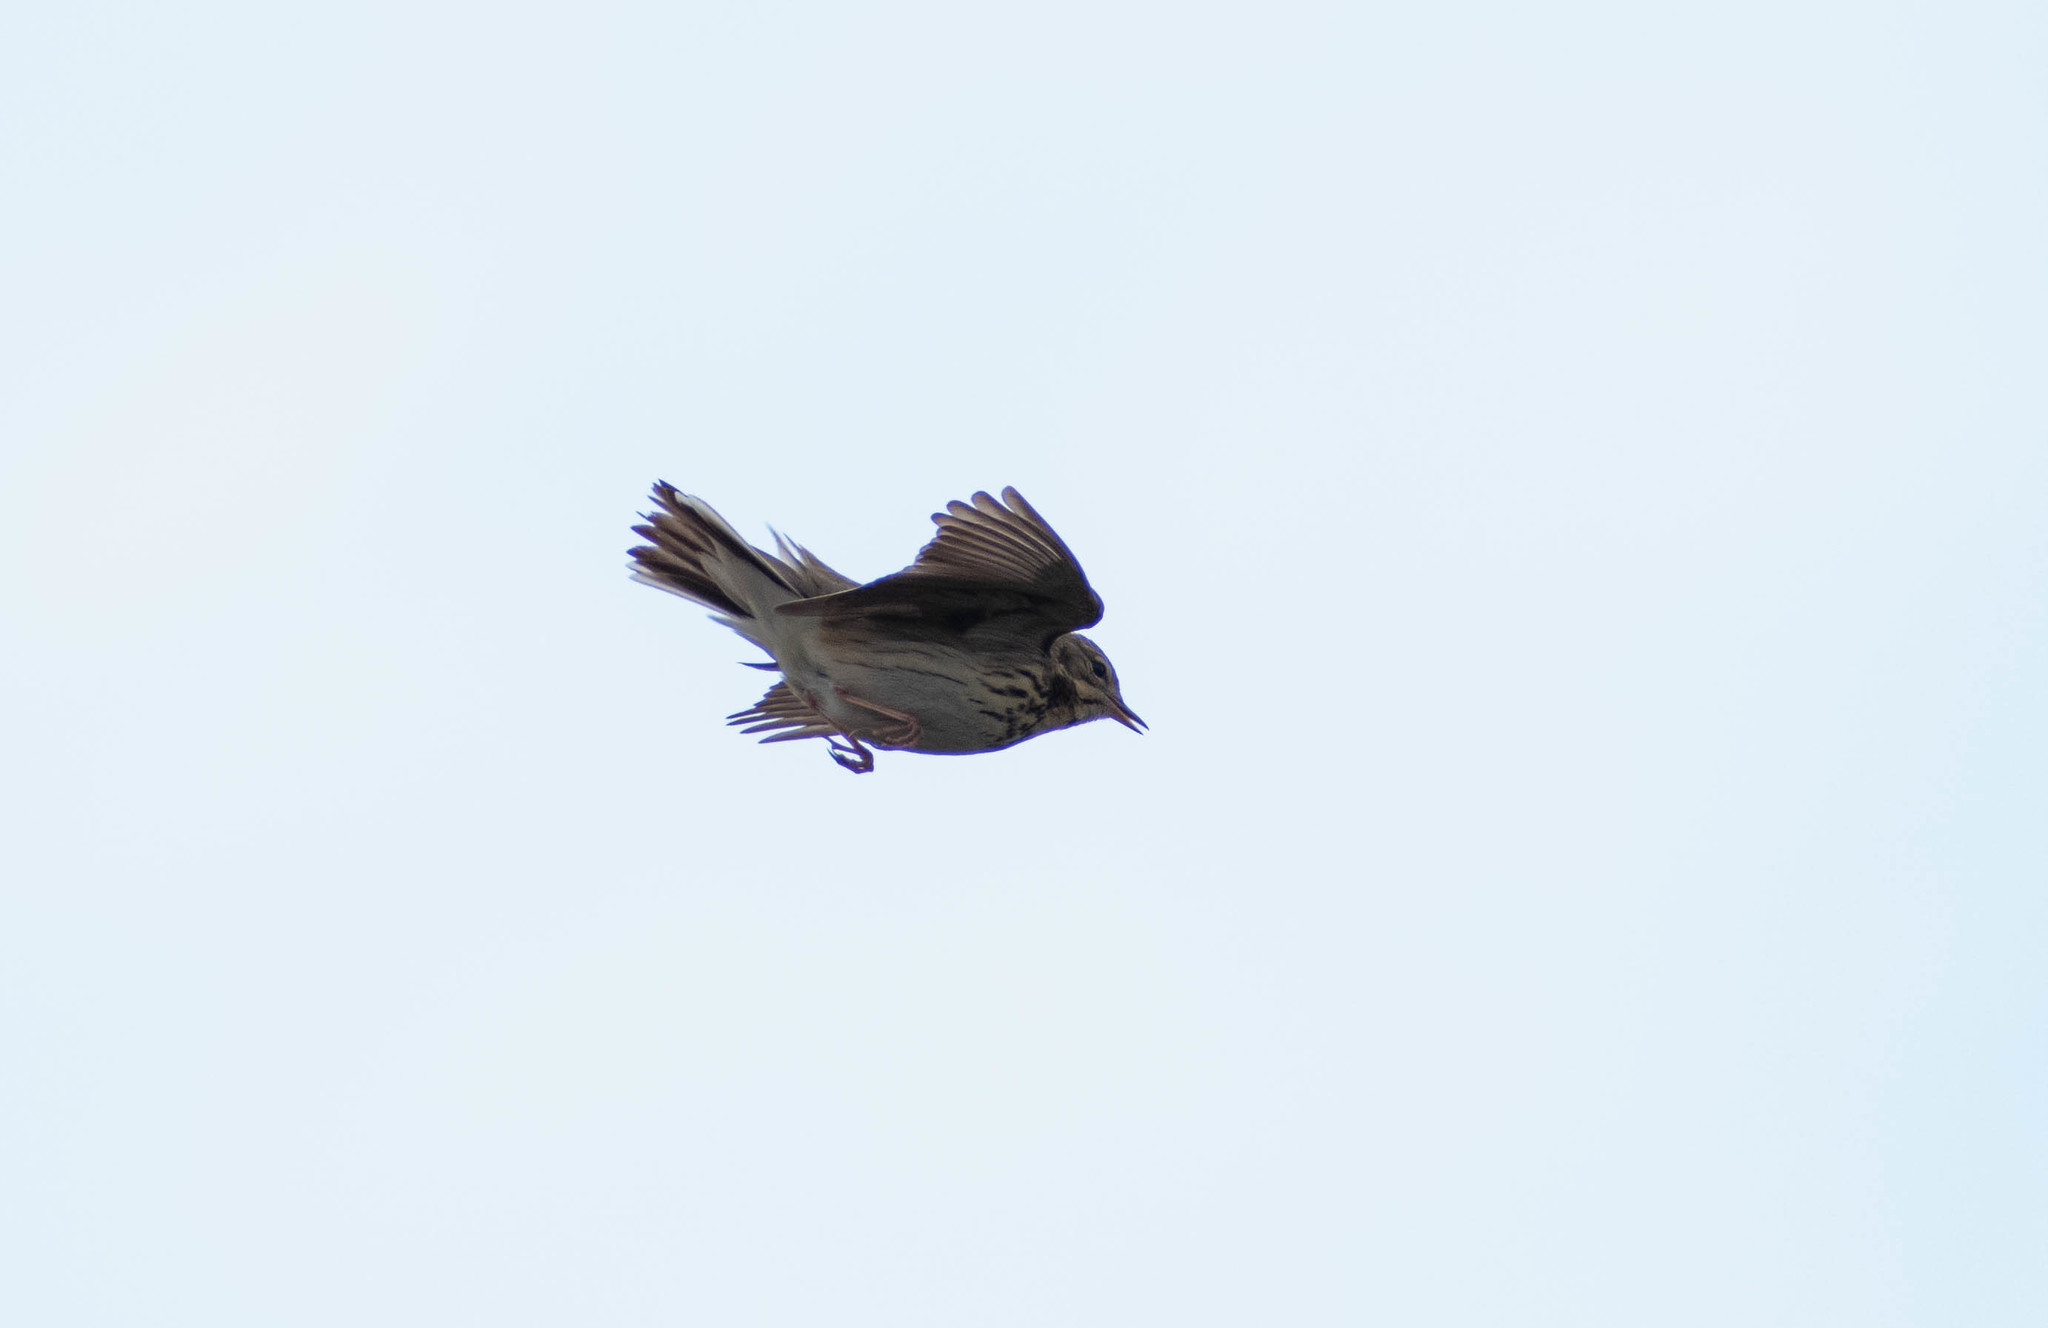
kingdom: Animalia
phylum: Chordata
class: Aves
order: Passeriformes
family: Motacillidae
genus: Anthus
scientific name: Anthus trivialis
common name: Tree pipit
